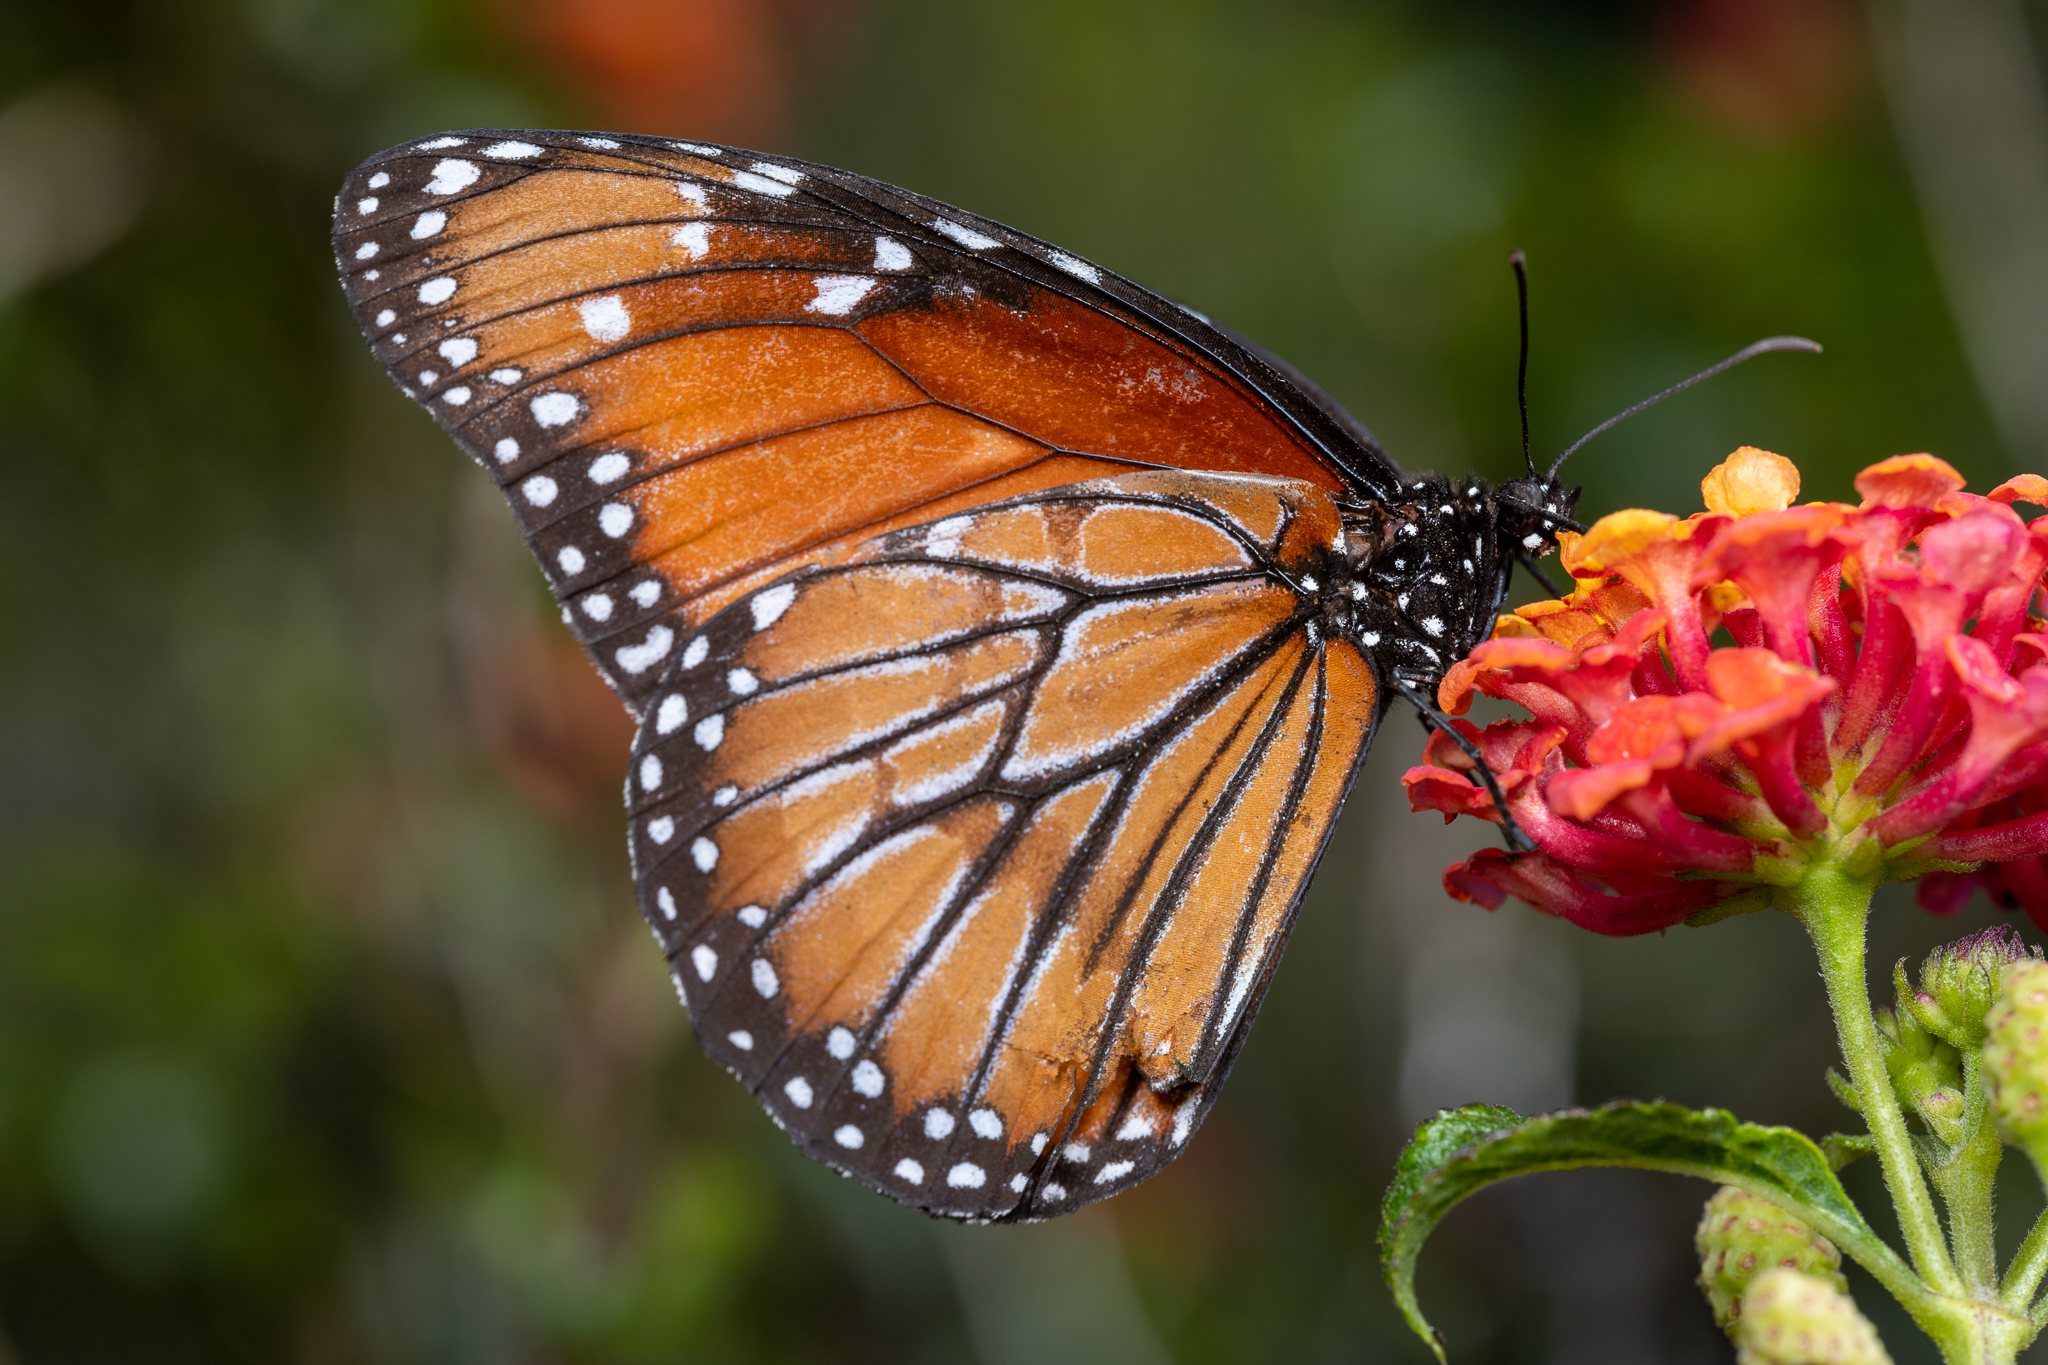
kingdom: Animalia
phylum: Arthropoda
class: Insecta
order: Lepidoptera
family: Nymphalidae
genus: Danaus
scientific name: Danaus eresimus
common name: Soldier
